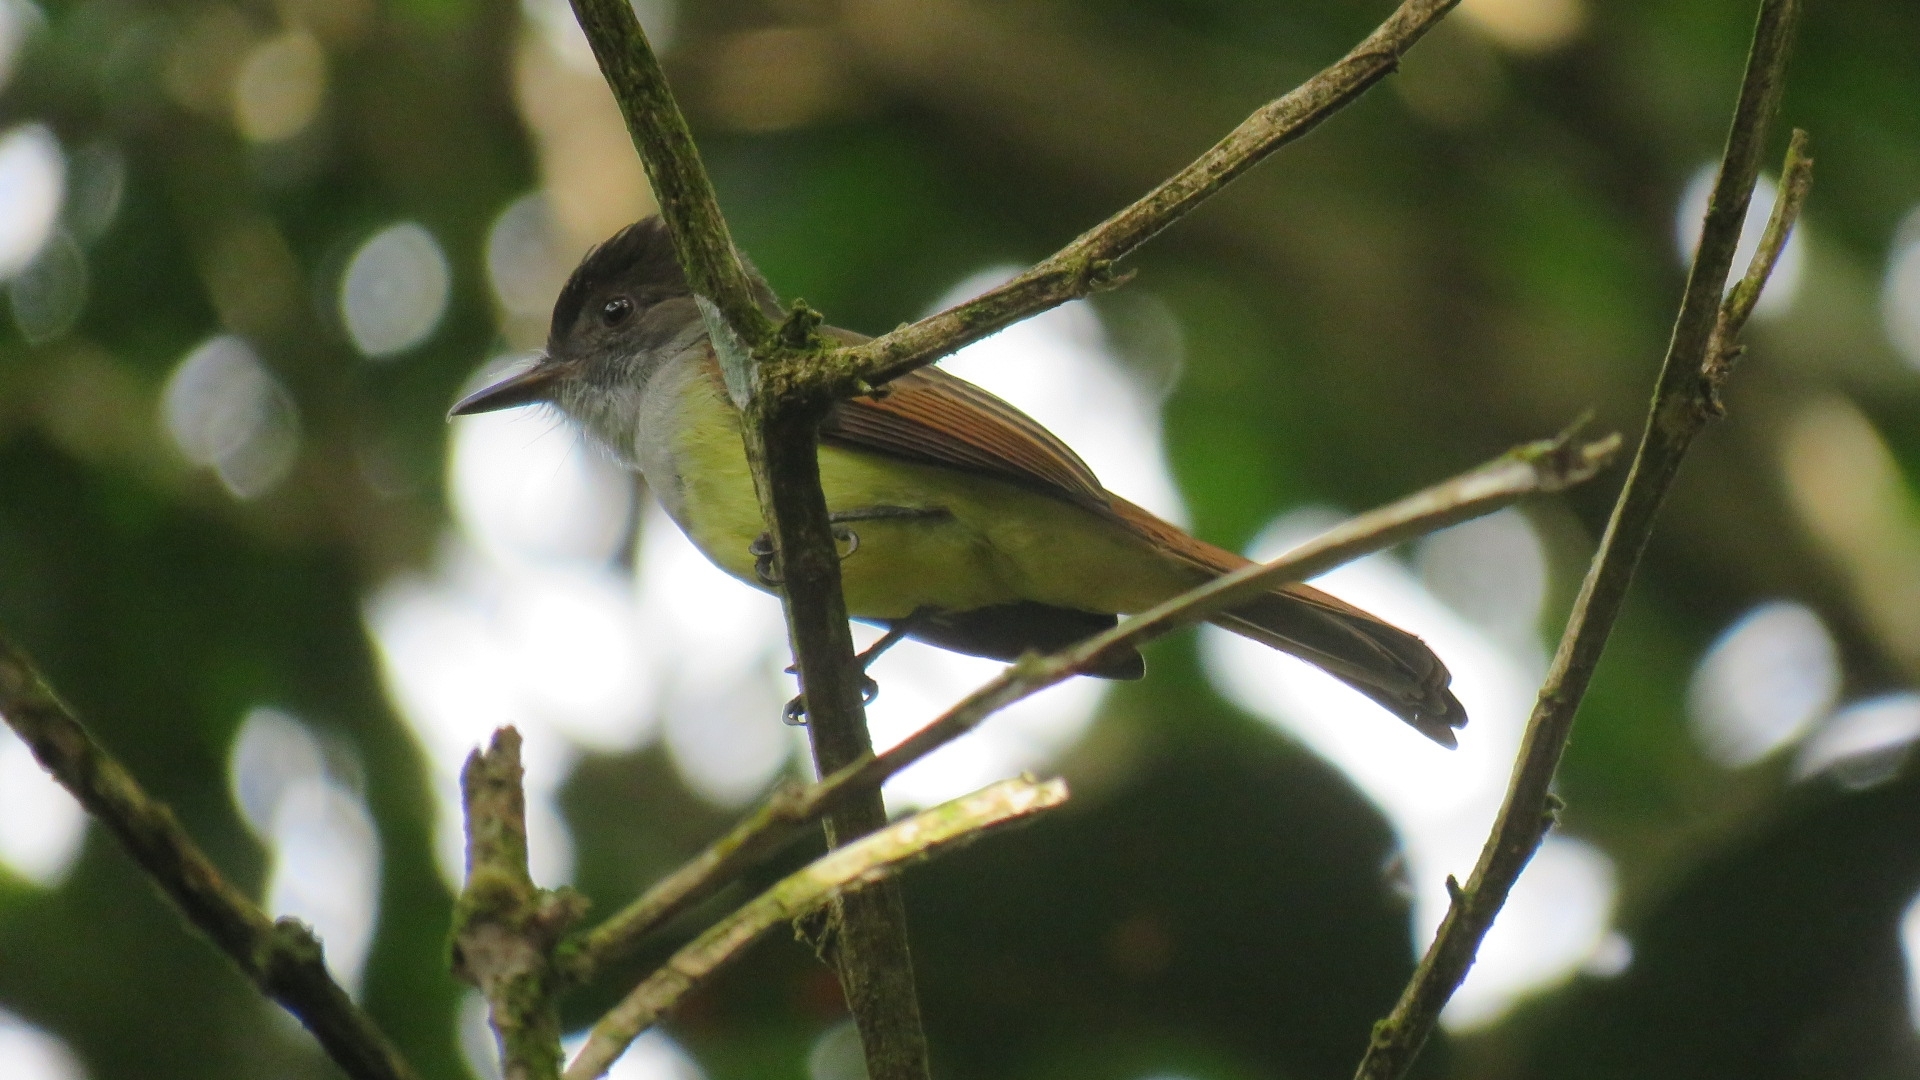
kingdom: Animalia
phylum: Chordata
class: Aves
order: Passeriformes
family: Tyrannidae
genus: Myiarchus
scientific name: Myiarchus tuberculifer
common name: Dusky-capped flycatcher
